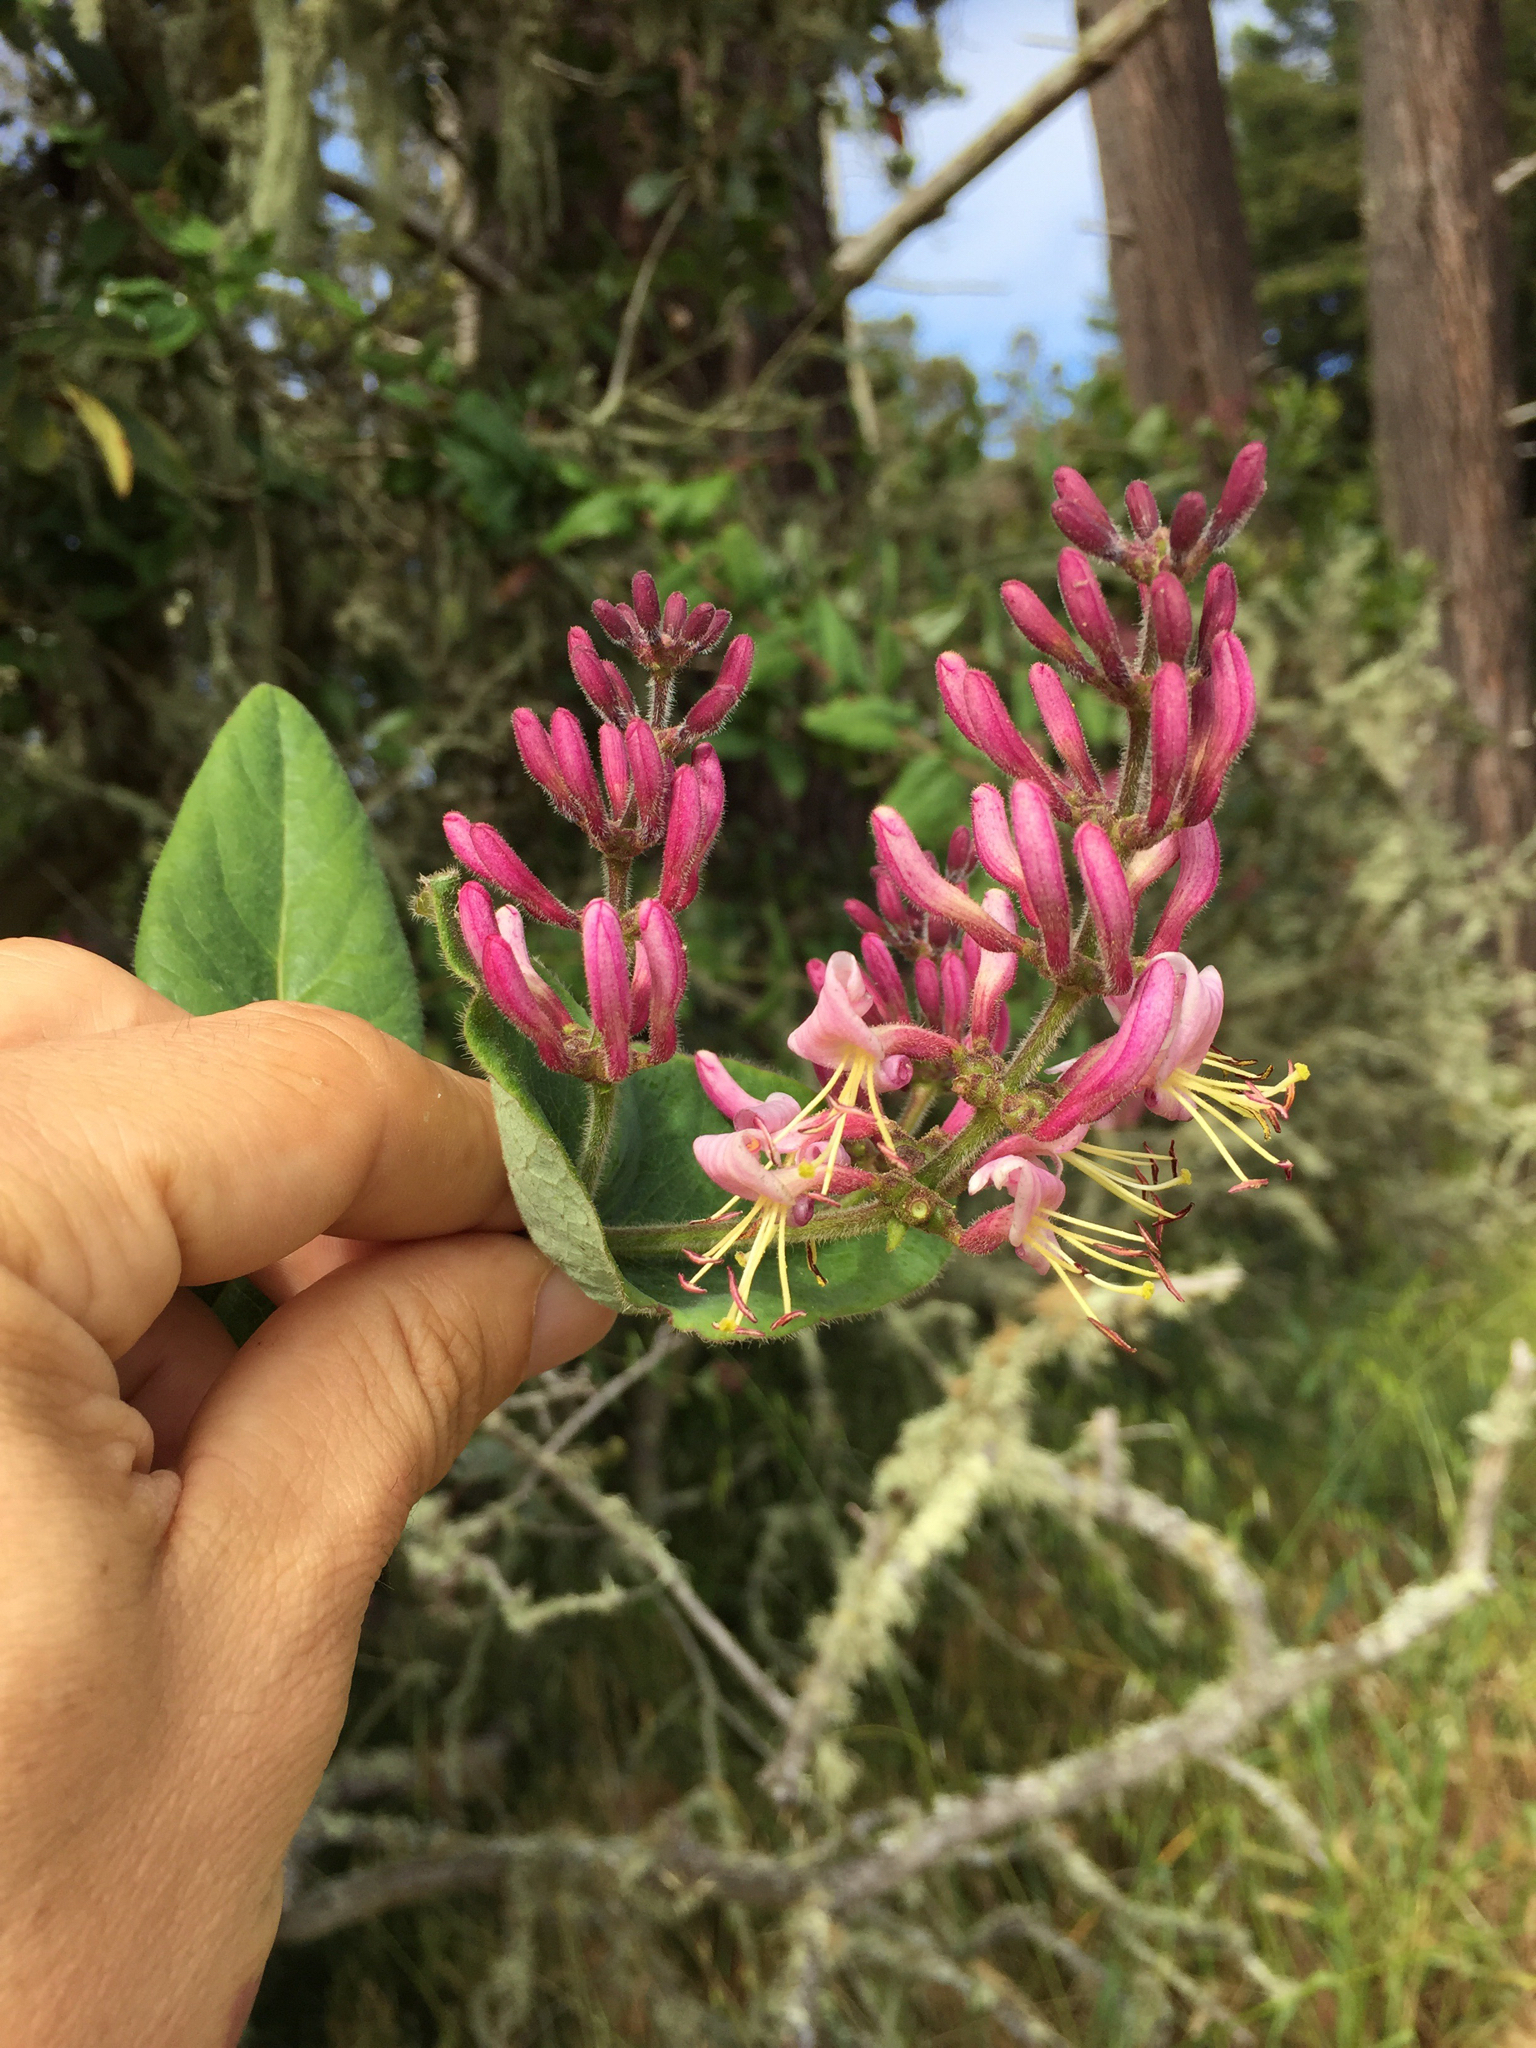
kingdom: Plantae
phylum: Tracheophyta
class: Magnoliopsida
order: Dipsacales
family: Caprifoliaceae
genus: Lonicera
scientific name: Lonicera hispidula
